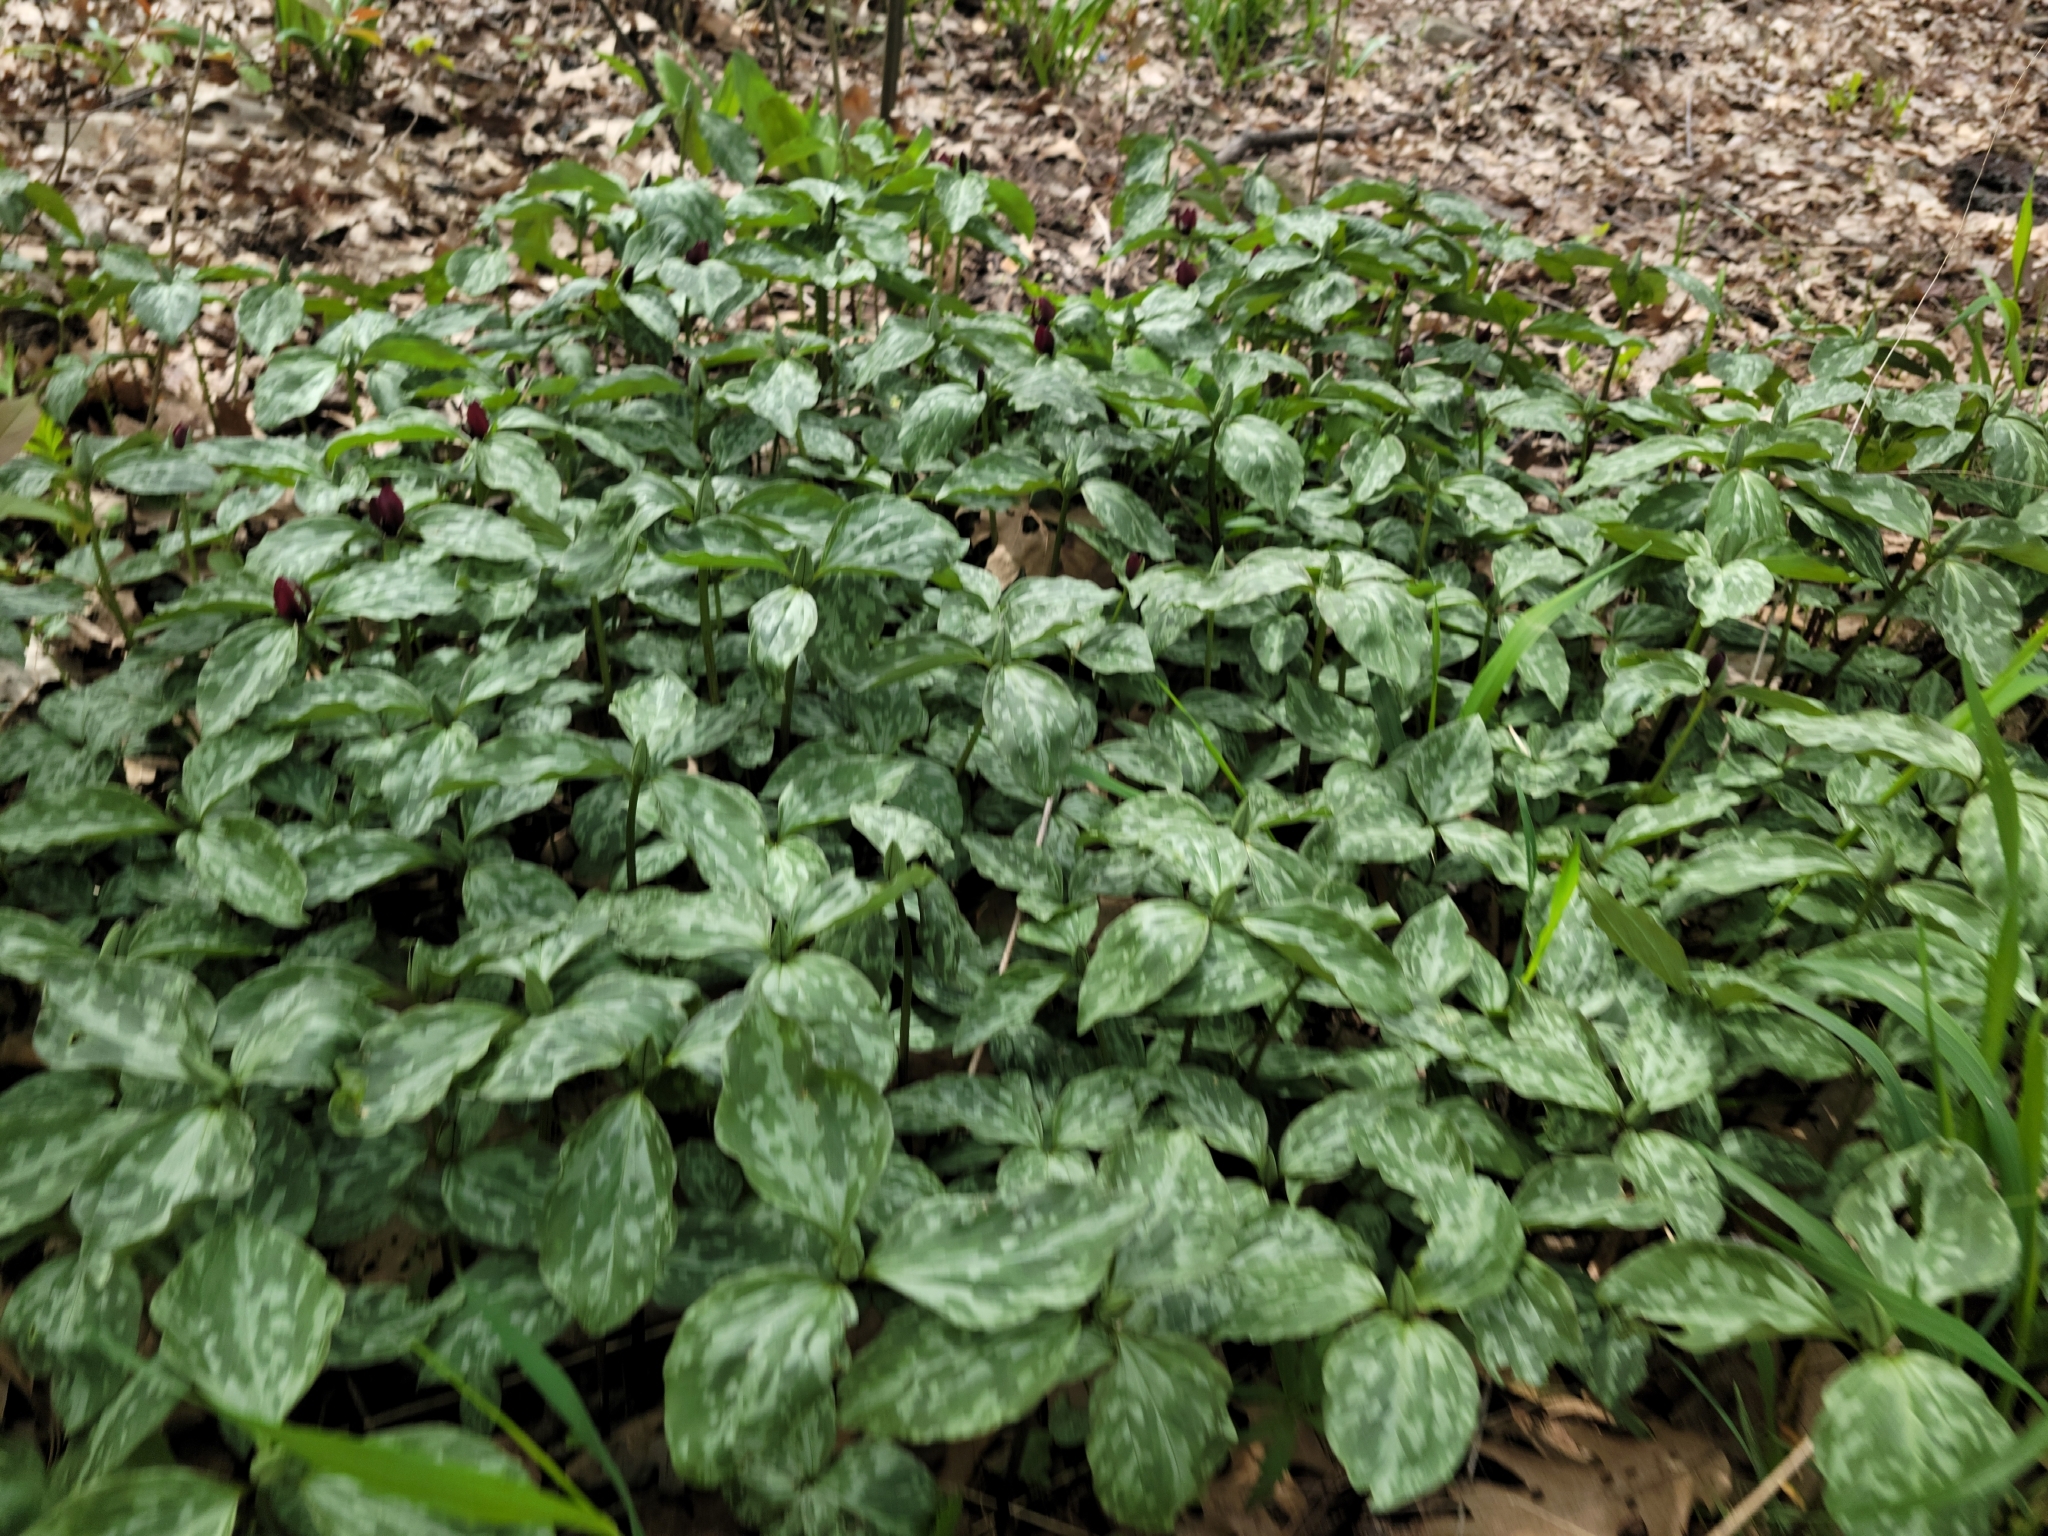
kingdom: Plantae
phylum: Tracheophyta
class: Liliopsida
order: Liliales
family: Melanthiaceae
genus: Trillium
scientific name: Trillium recurvatum
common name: Bloody butcher
